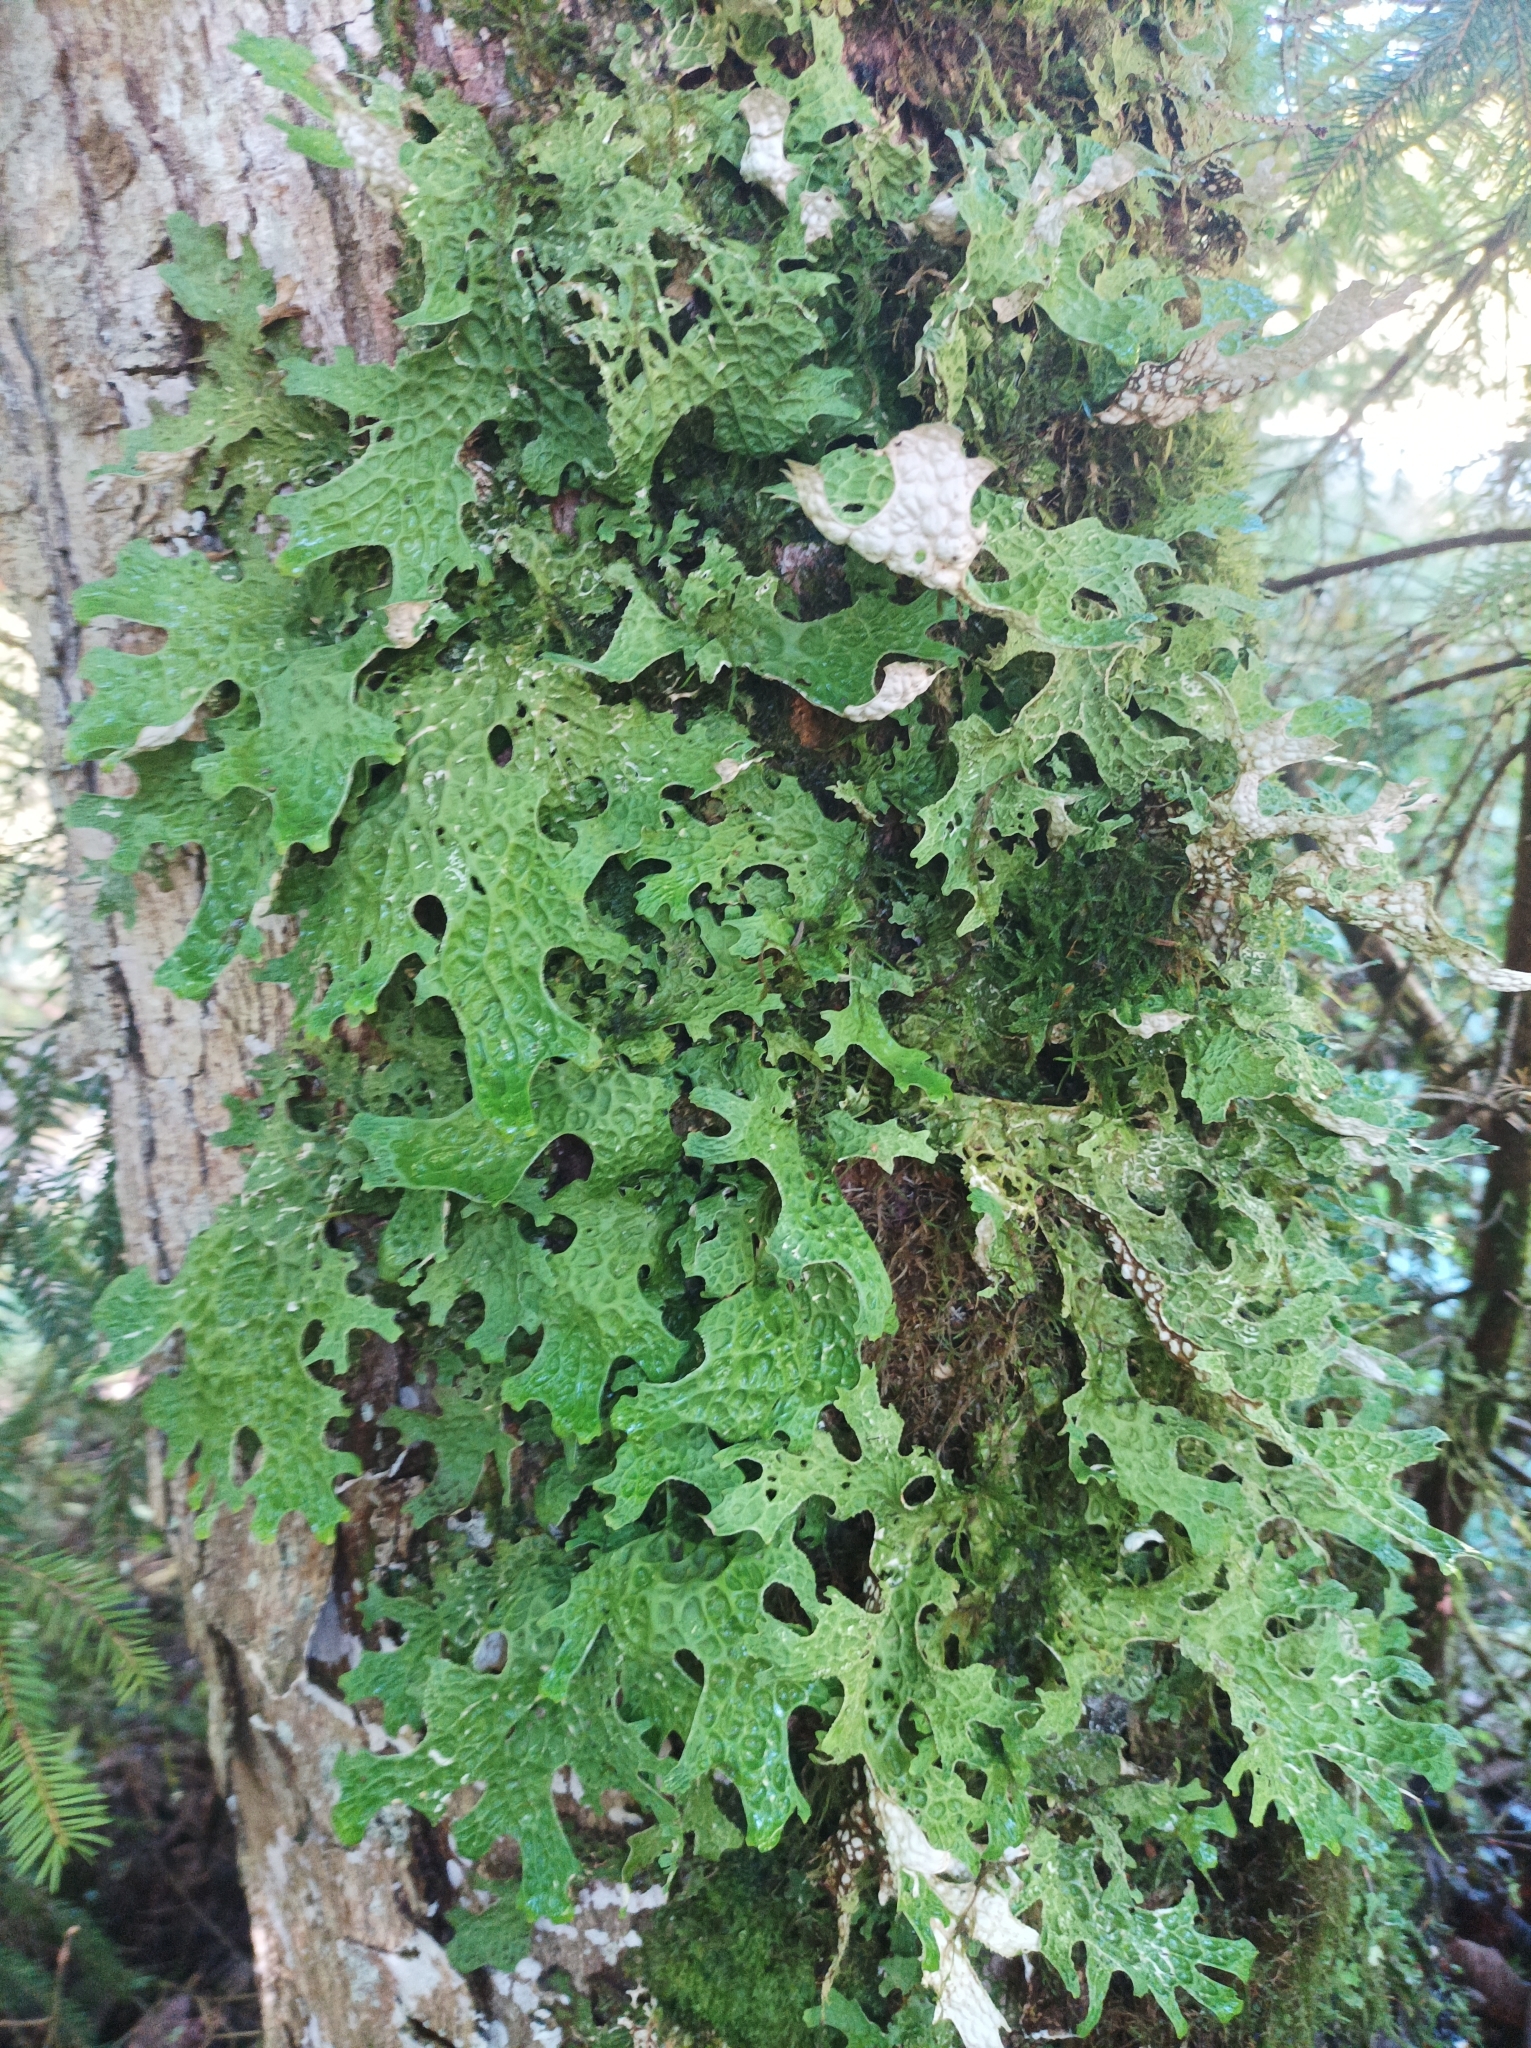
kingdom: Fungi
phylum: Ascomycota
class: Lecanoromycetes
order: Peltigerales
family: Lobariaceae
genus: Lobaria
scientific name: Lobaria pulmonaria
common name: Lungwort
